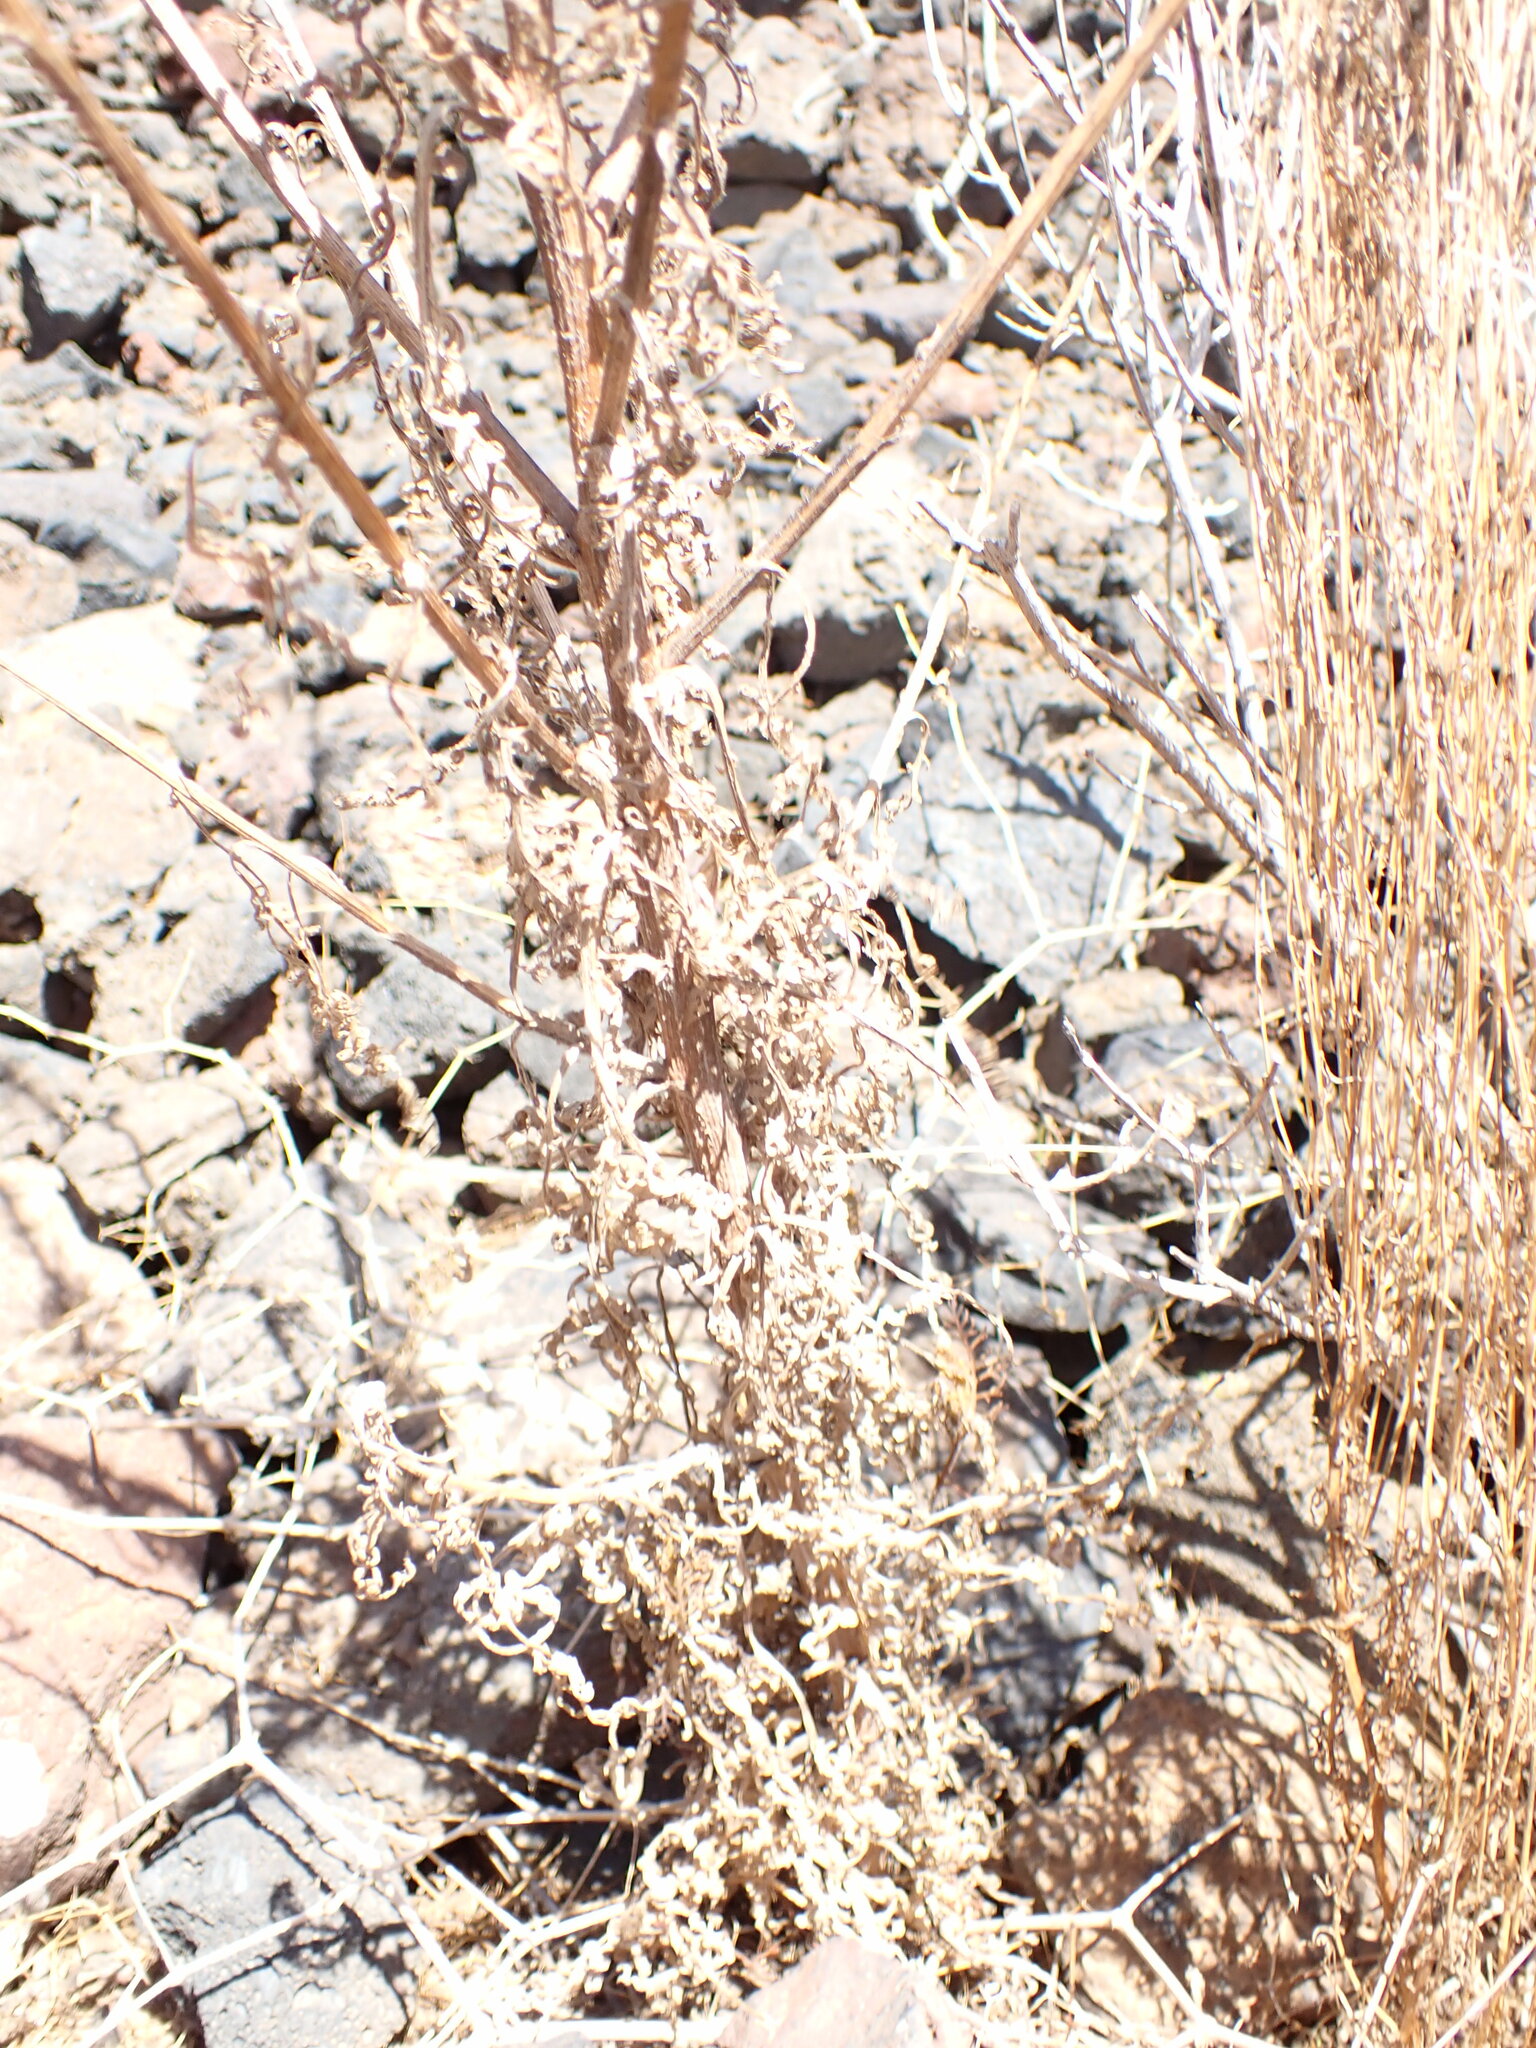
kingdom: Plantae
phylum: Tracheophyta
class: Magnoliopsida
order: Asterales
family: Asteraceae
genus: Volutaria
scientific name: Volutaria canariensis
